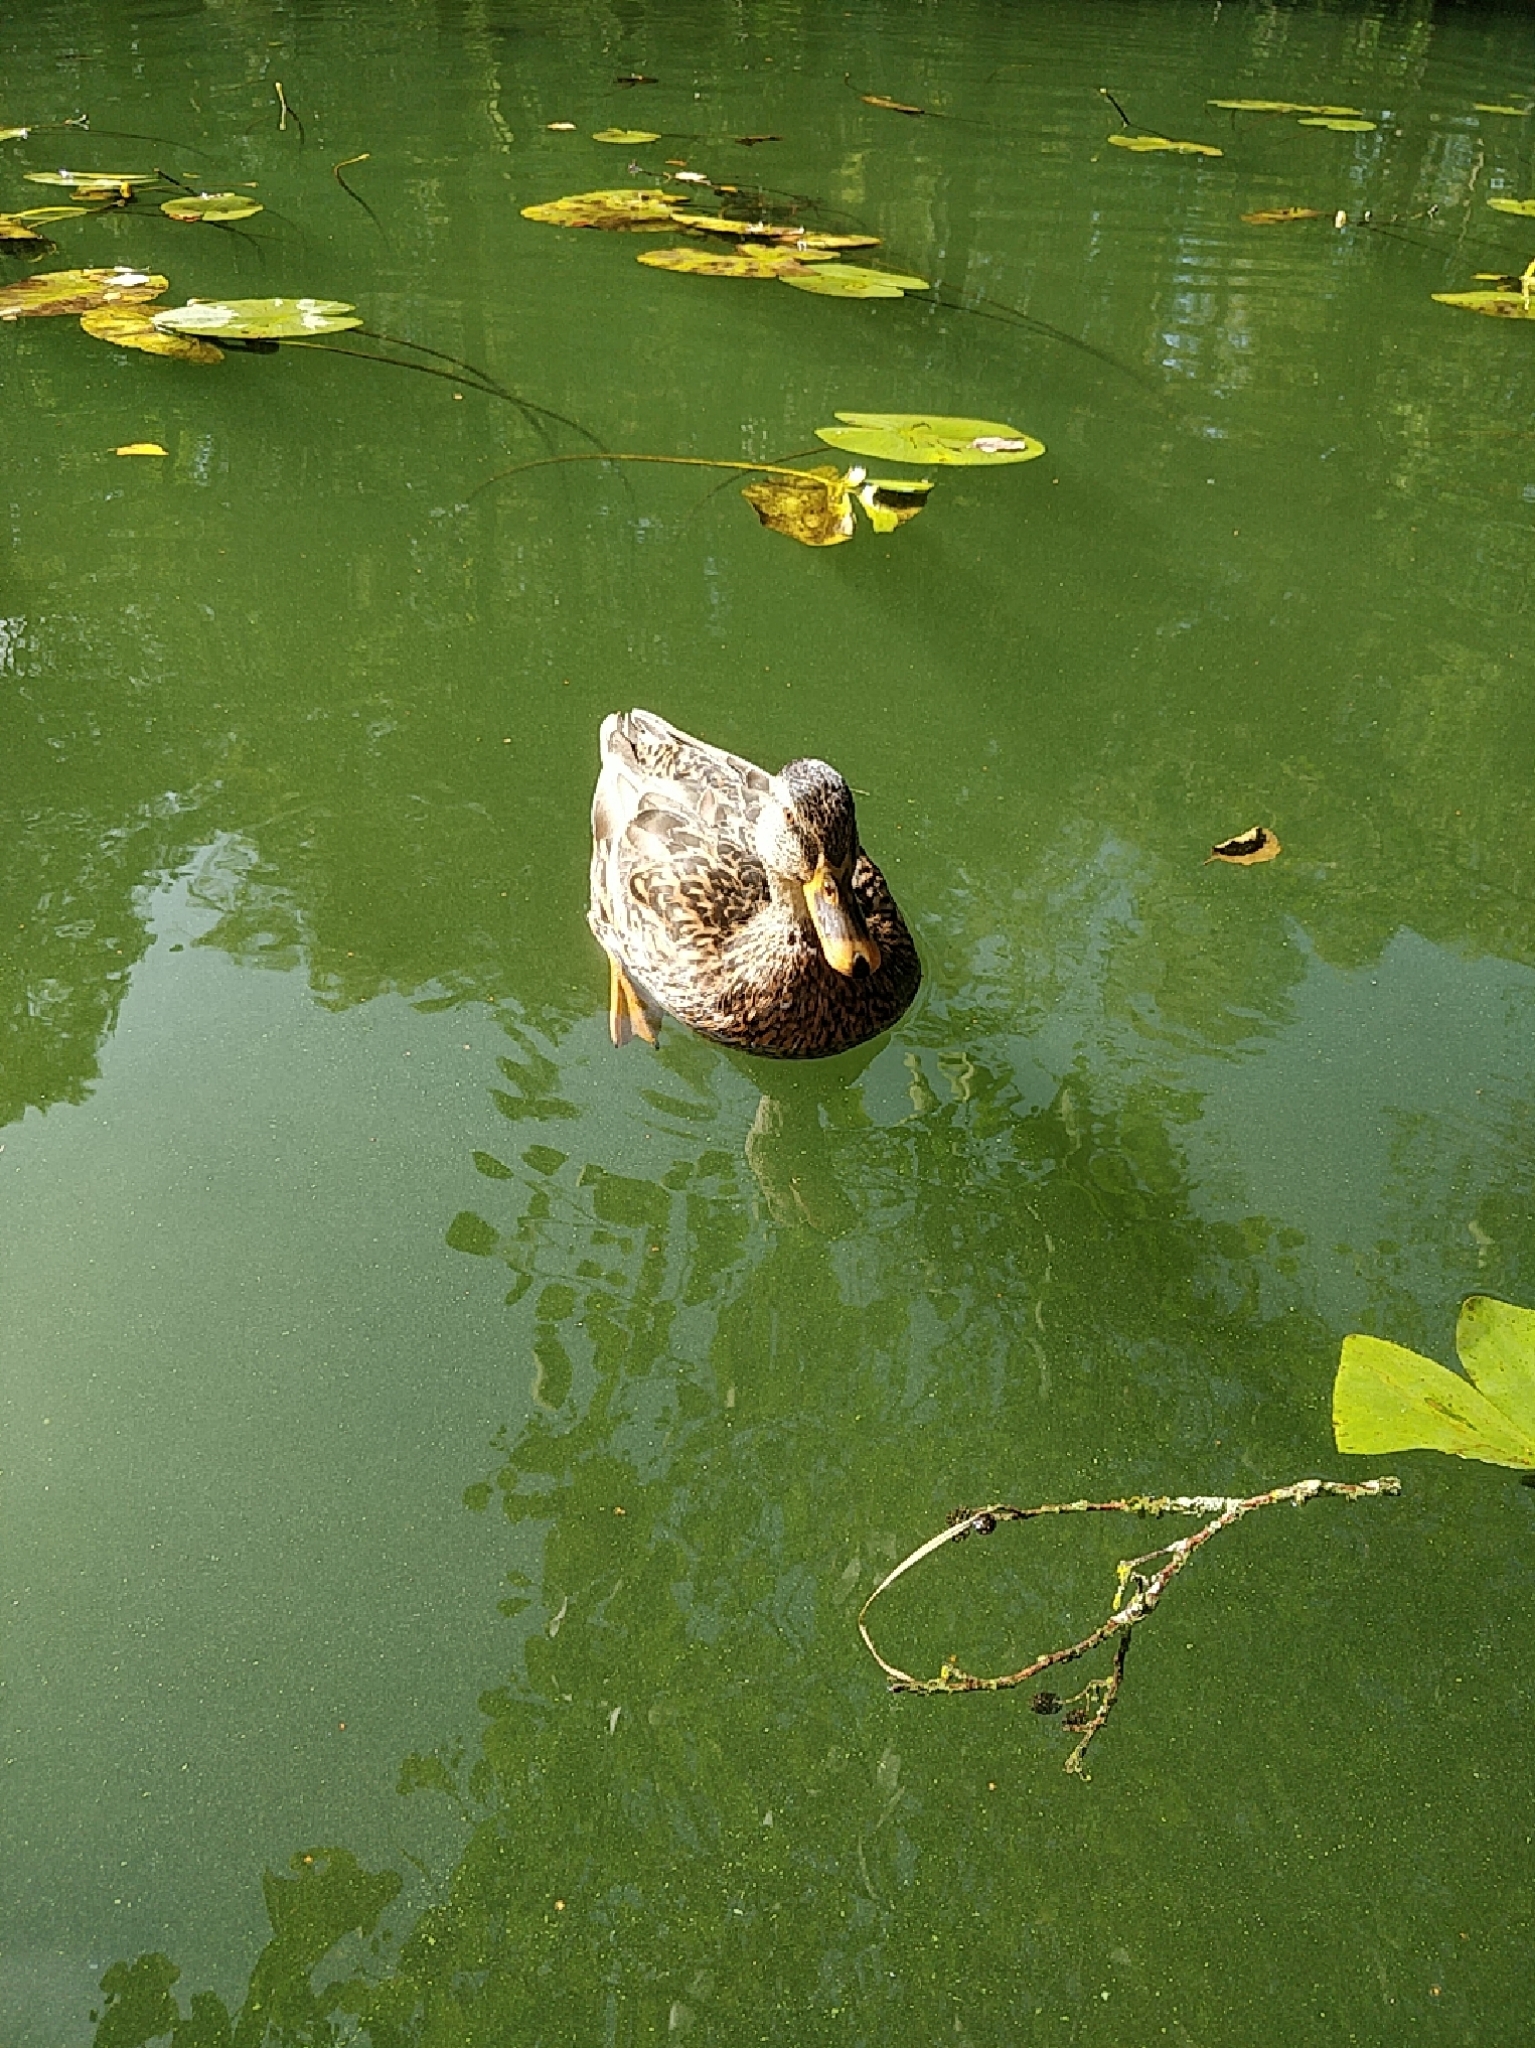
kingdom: Animalia
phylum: Chordata
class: Aves
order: Anseriformes
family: Anatidae
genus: Anas
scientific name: Anas platyrhynchos
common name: Mallard
